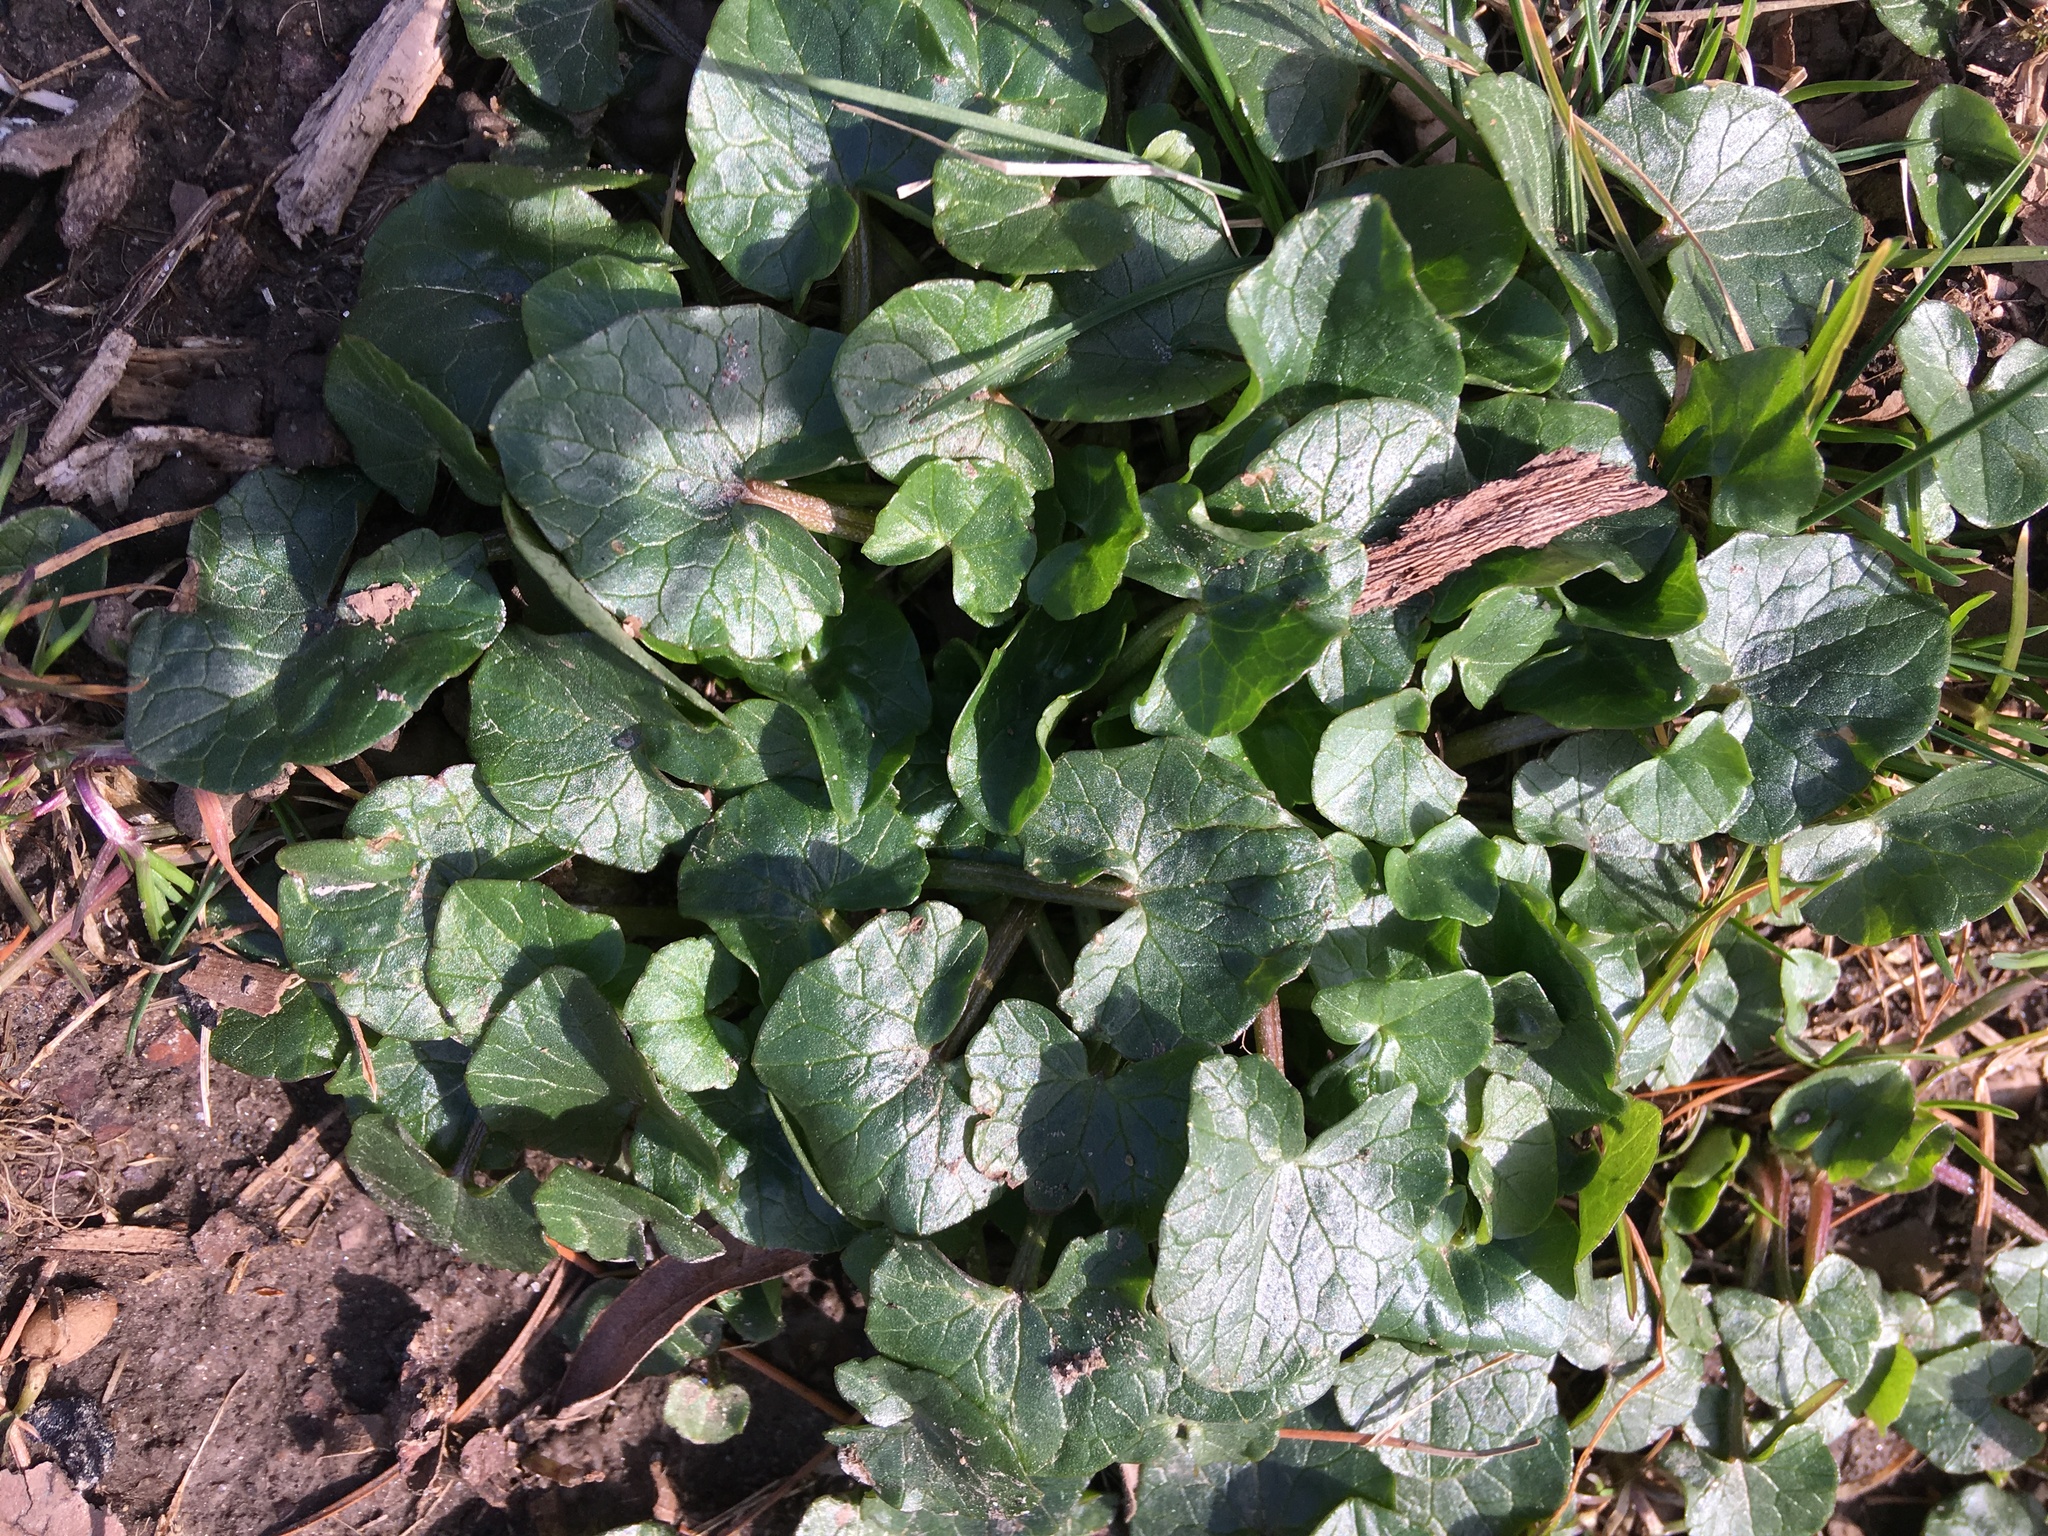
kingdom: Plantae
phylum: Tracheophyta
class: Magnoliopsida
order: Ranunculales
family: Ranunculaceae
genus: Ficaria
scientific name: Ficaria verna
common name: Lesser celandine
